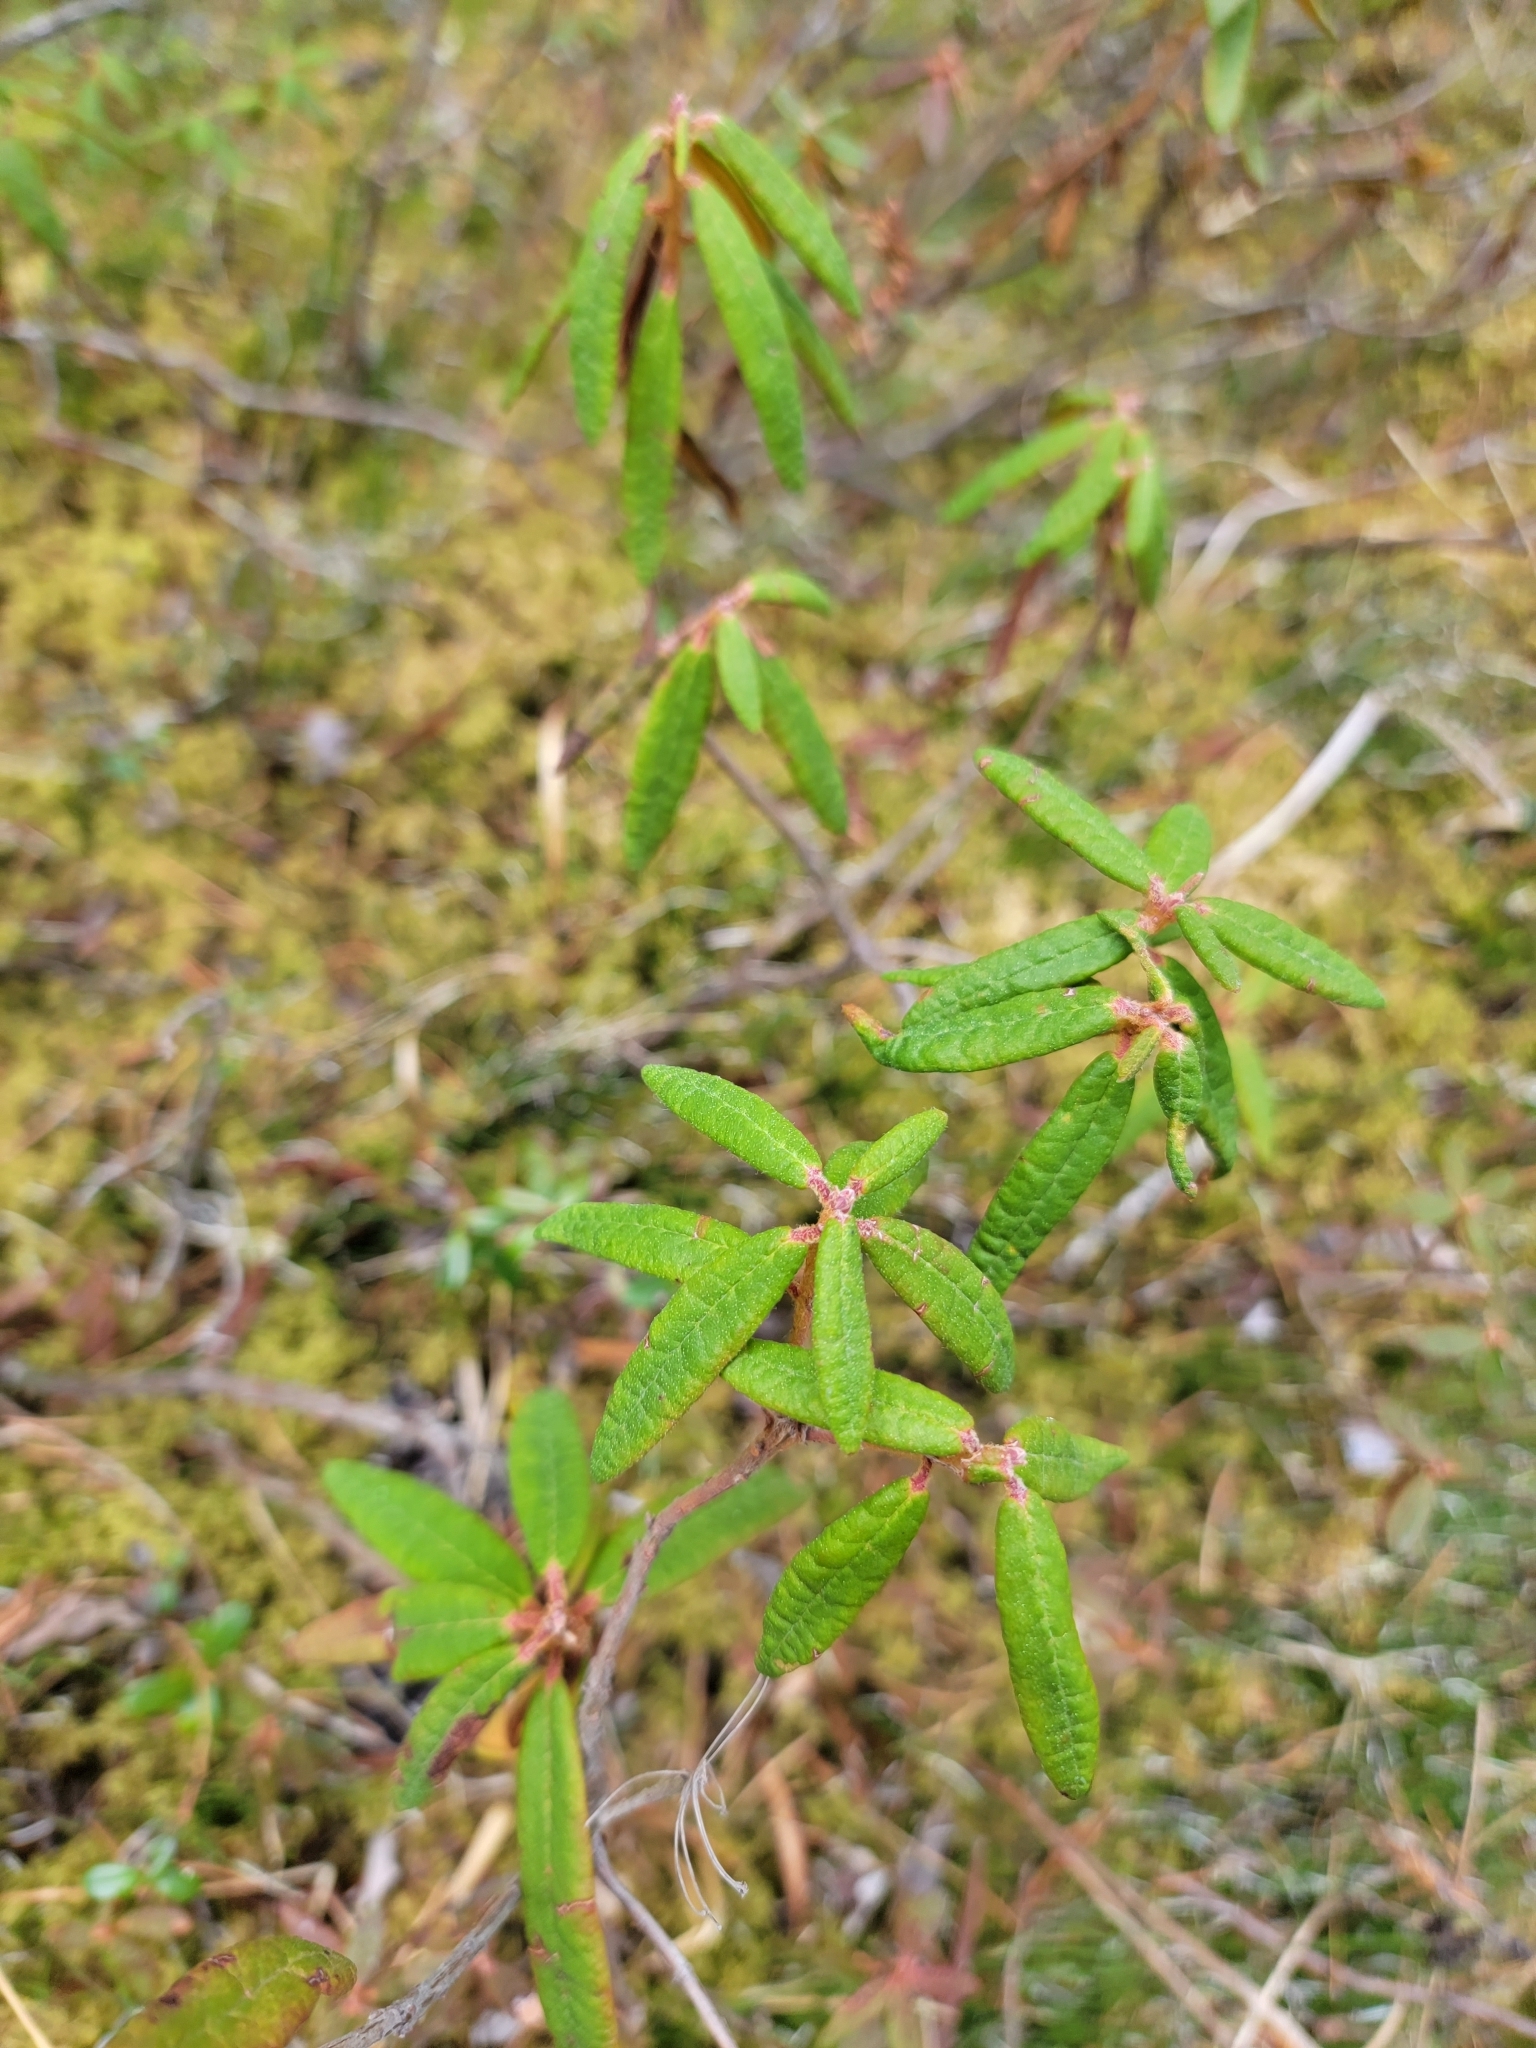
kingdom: Plantae
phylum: Tracheophyta
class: Magnoliopsida
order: Ericales
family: Ericaceae
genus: Rhododendron
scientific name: Rhododendron groenlandicum
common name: Bog labrador tea
